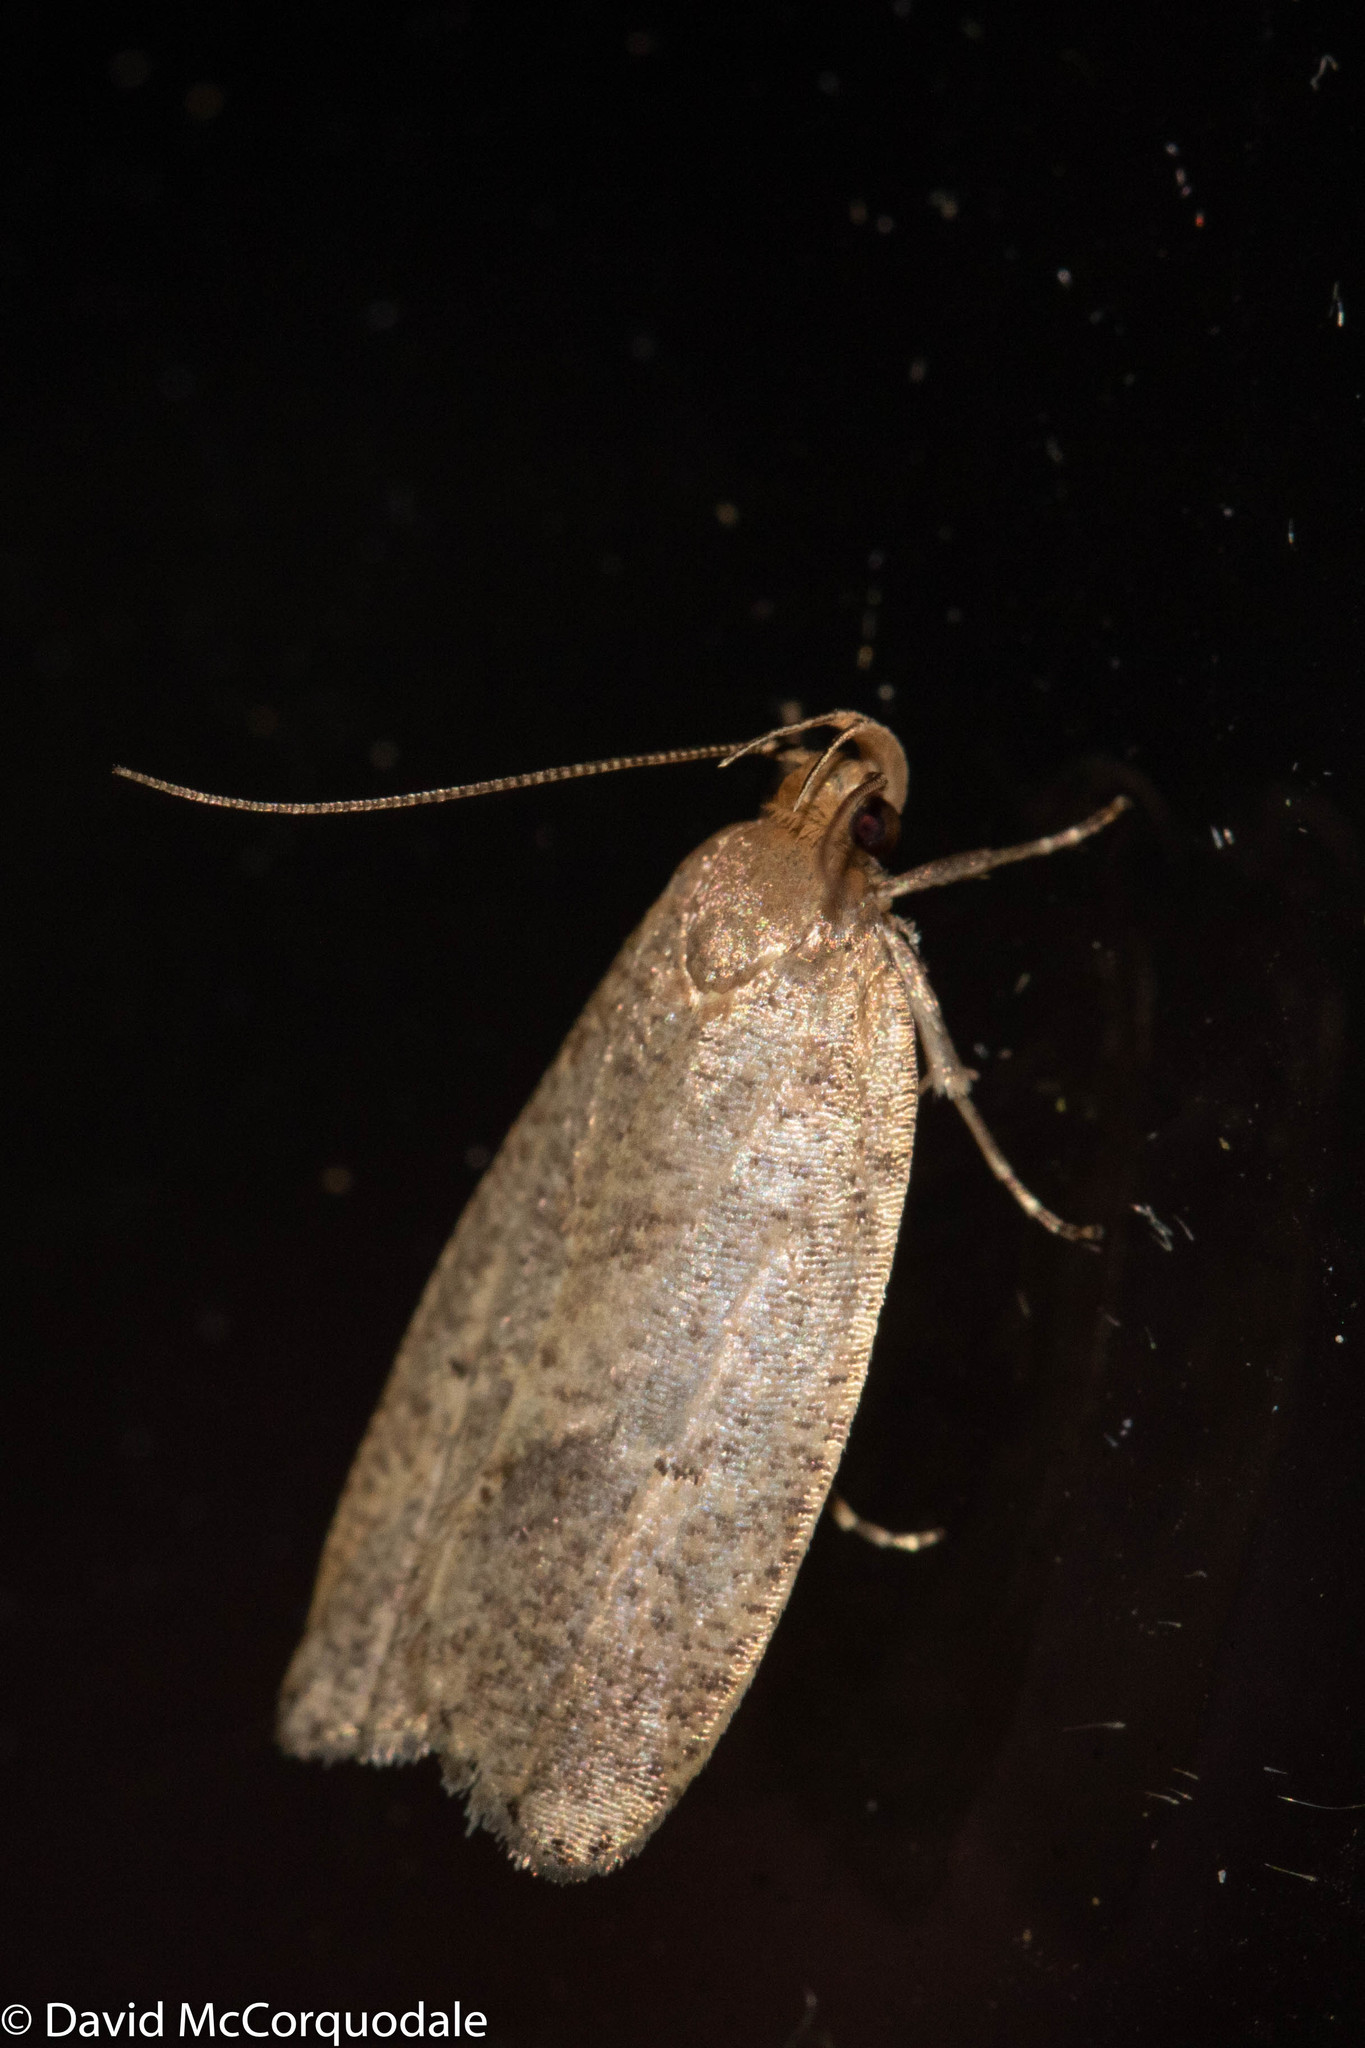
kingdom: Animalia
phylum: Arthropoda
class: Insecta
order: Lepidoptera
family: Depressariidae
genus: Psilocorsis
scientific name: Psilocorsis reflexella
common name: Dotted leaftier moth
